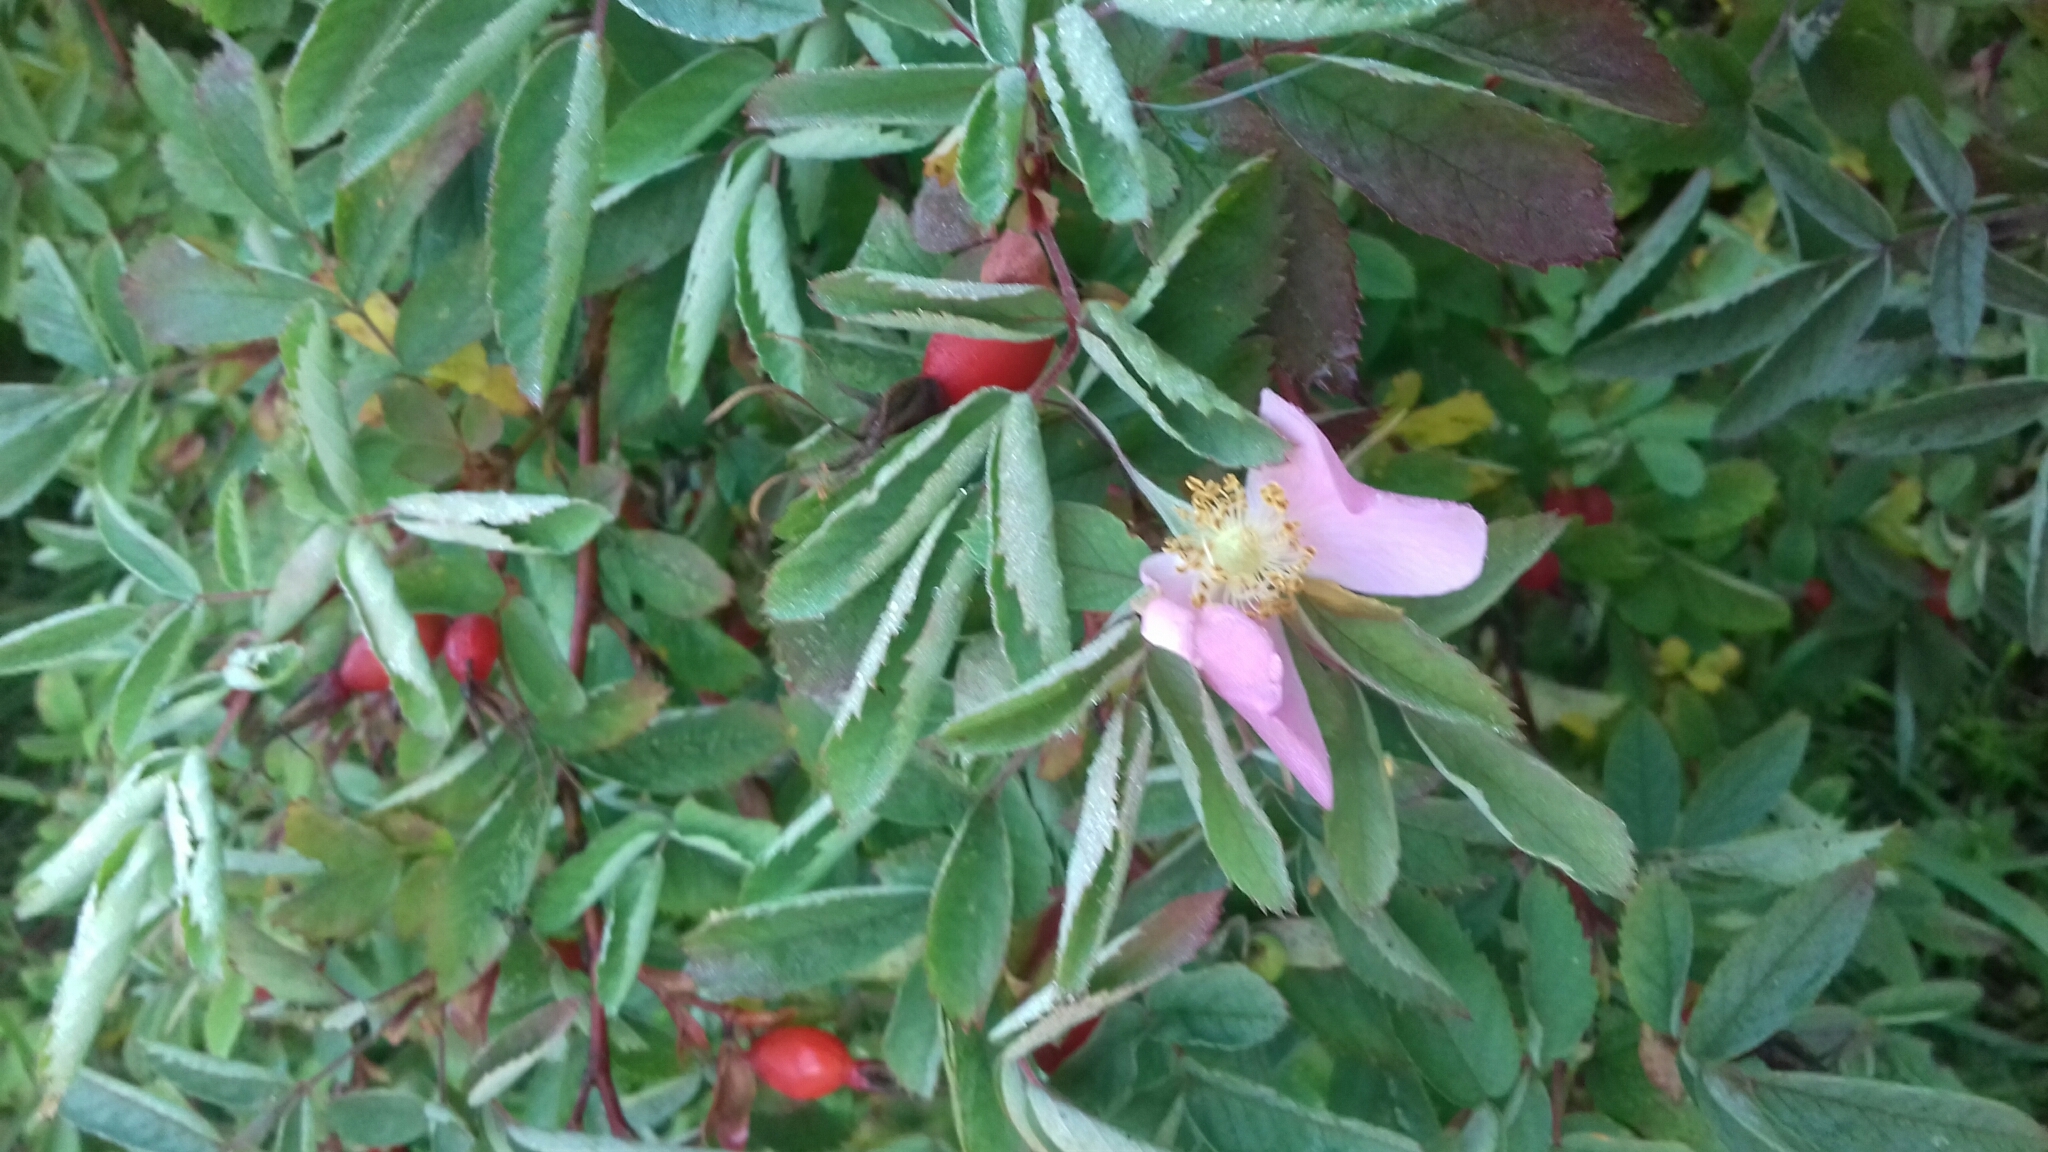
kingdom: Plantae
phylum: Tracheophyta
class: Magnoliopsida
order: Rosales
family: Rosaceae
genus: Rosa
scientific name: Rosa
